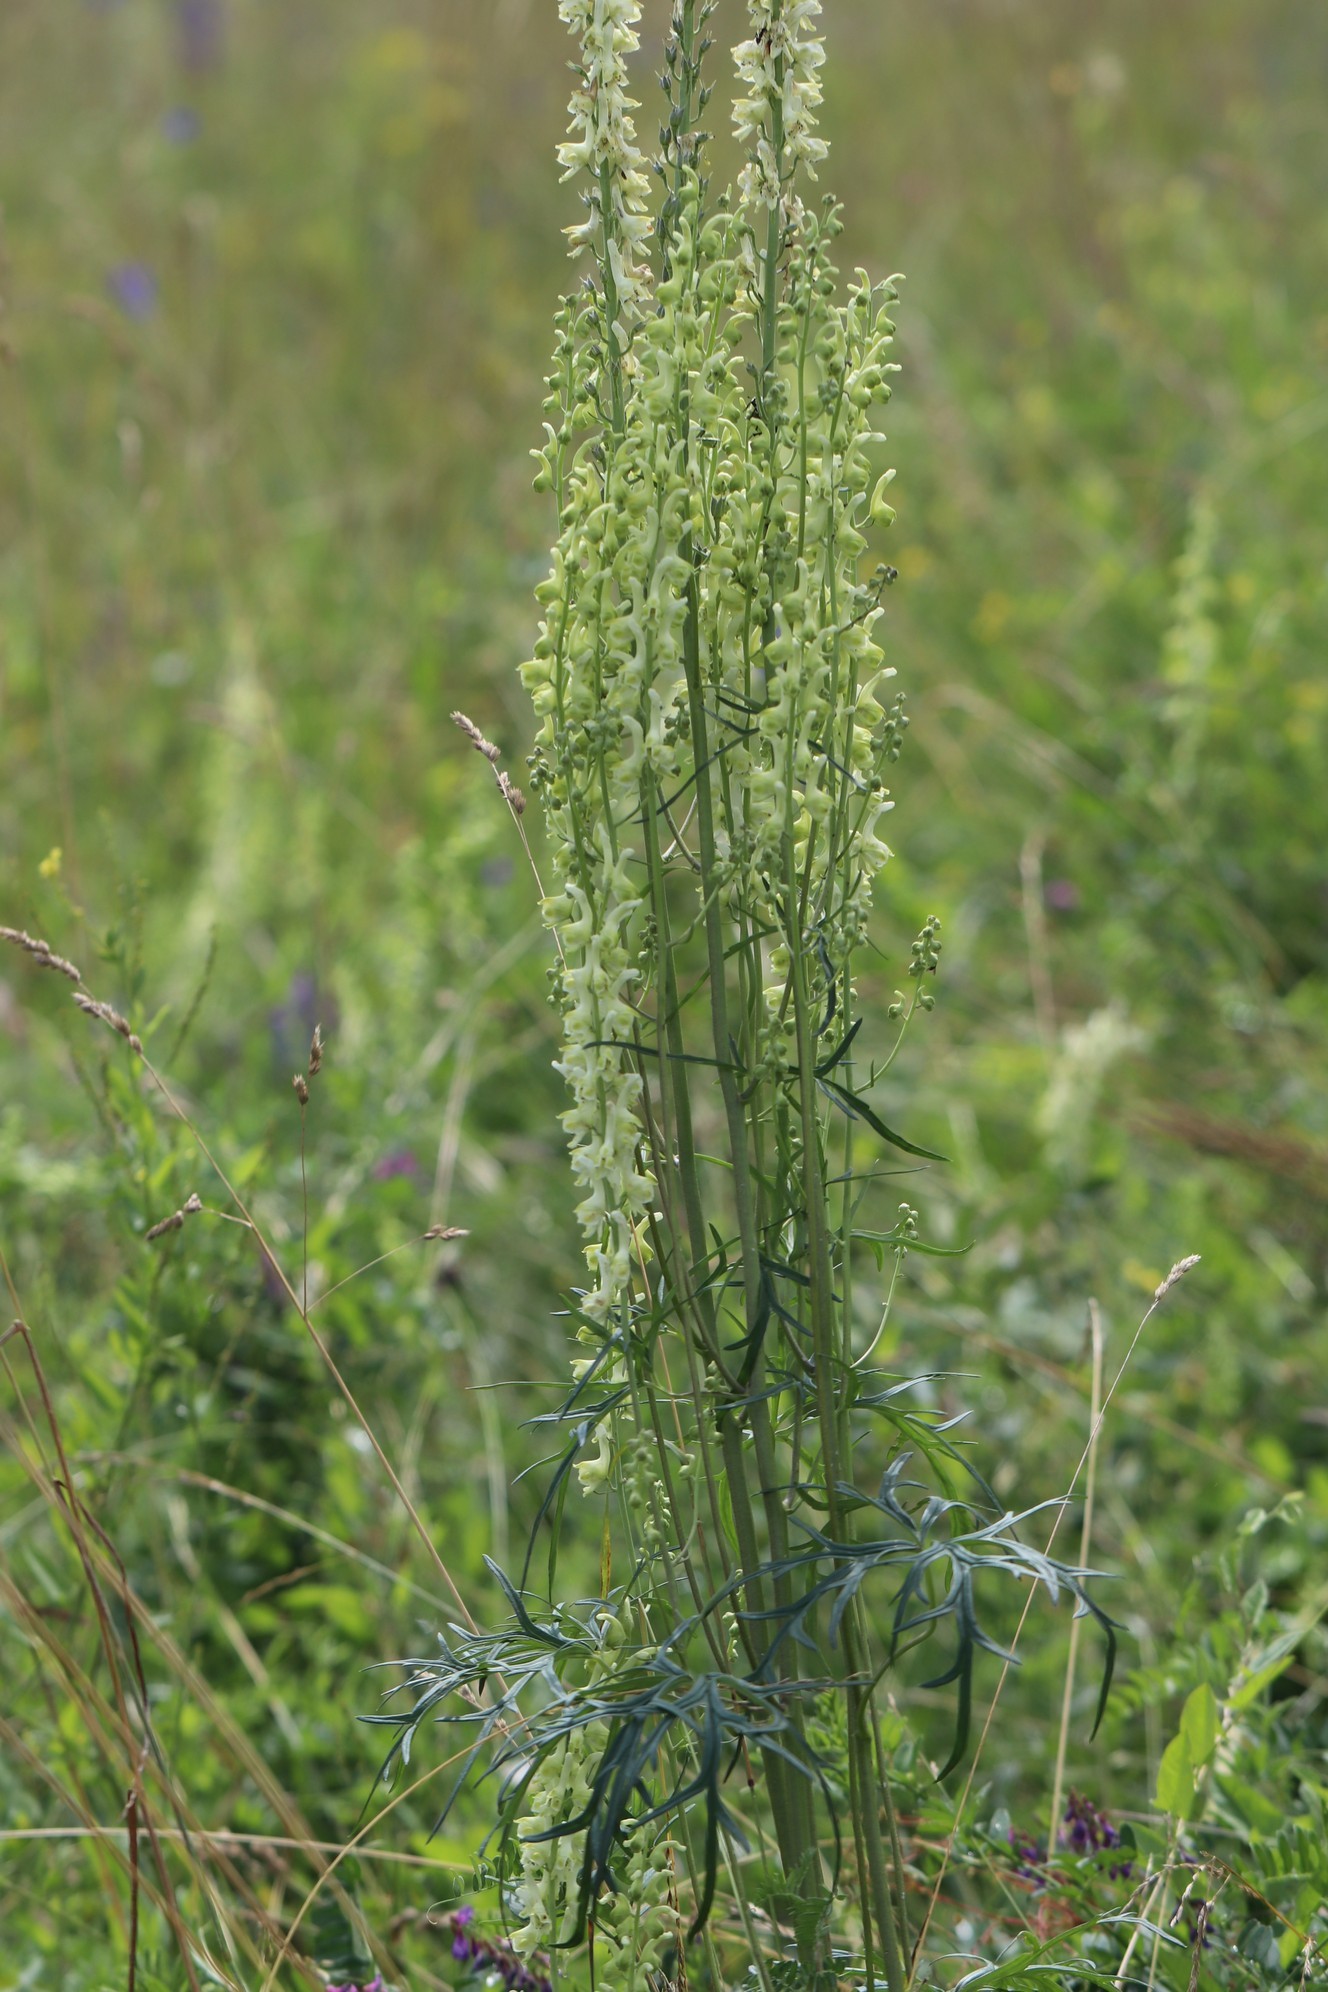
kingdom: Plantae
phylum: Tracheophyta
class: Magnoliopsida
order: Ranunculales
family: Ranunculaceae
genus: Aconitum
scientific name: Aconitum barbatum
